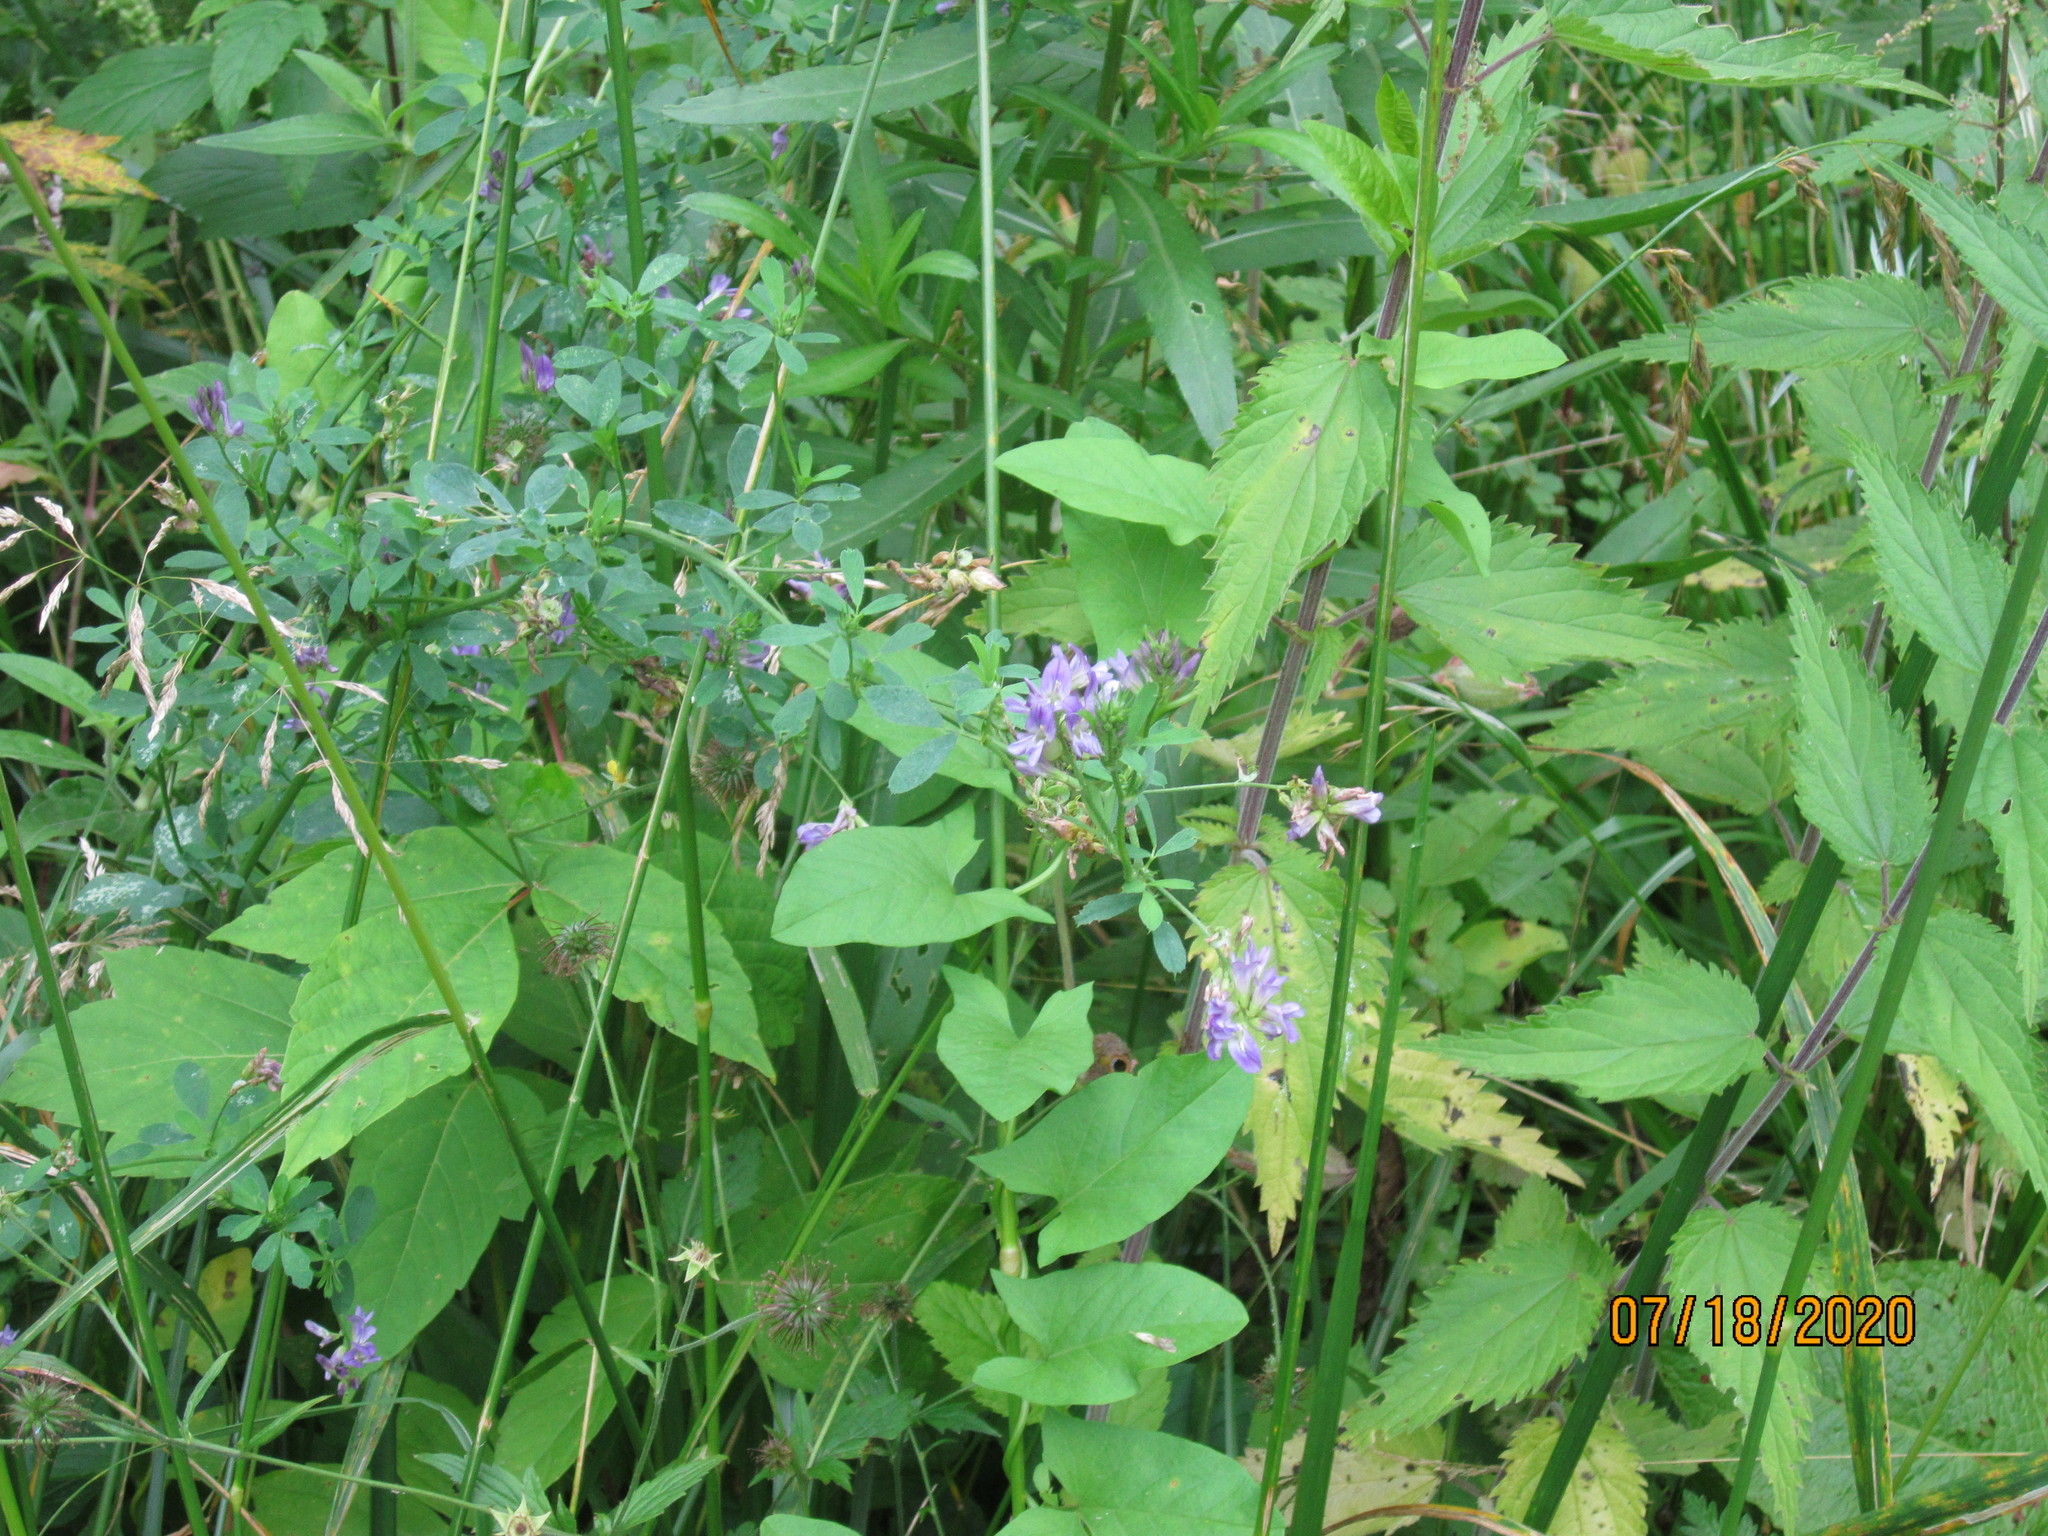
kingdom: Plantae
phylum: Tracheophyta
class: Magnoliopsida
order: Fabales
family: Fabaceae
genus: Medicago
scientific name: Medicago sativa
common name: Alfalfa
